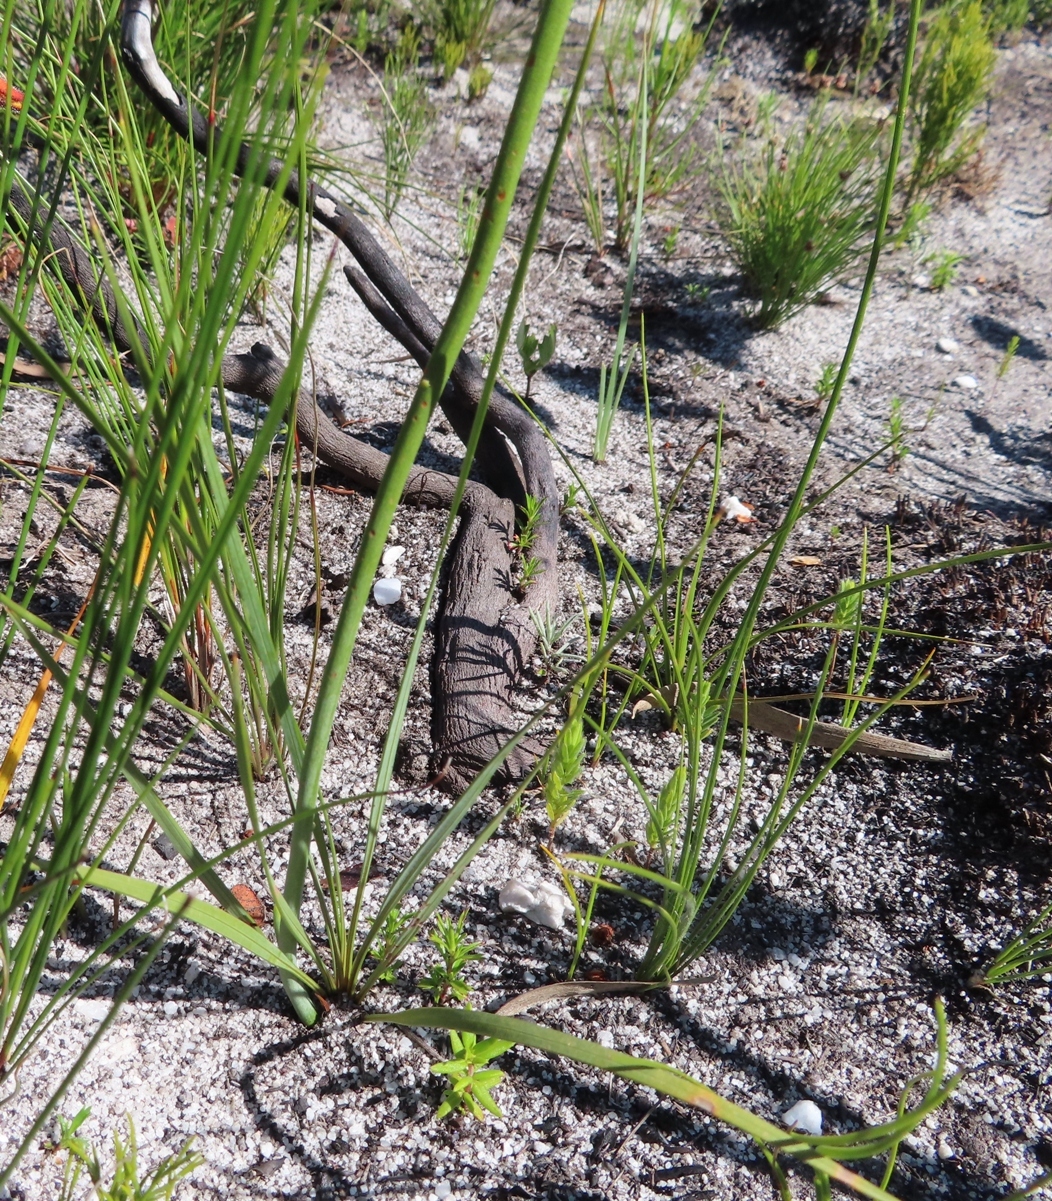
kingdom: Plantae
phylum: Tracheophyta
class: Liliopsida
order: Asparagales
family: Iridaceae
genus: Tritoniopsis
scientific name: Tritoniopsis parviflora
